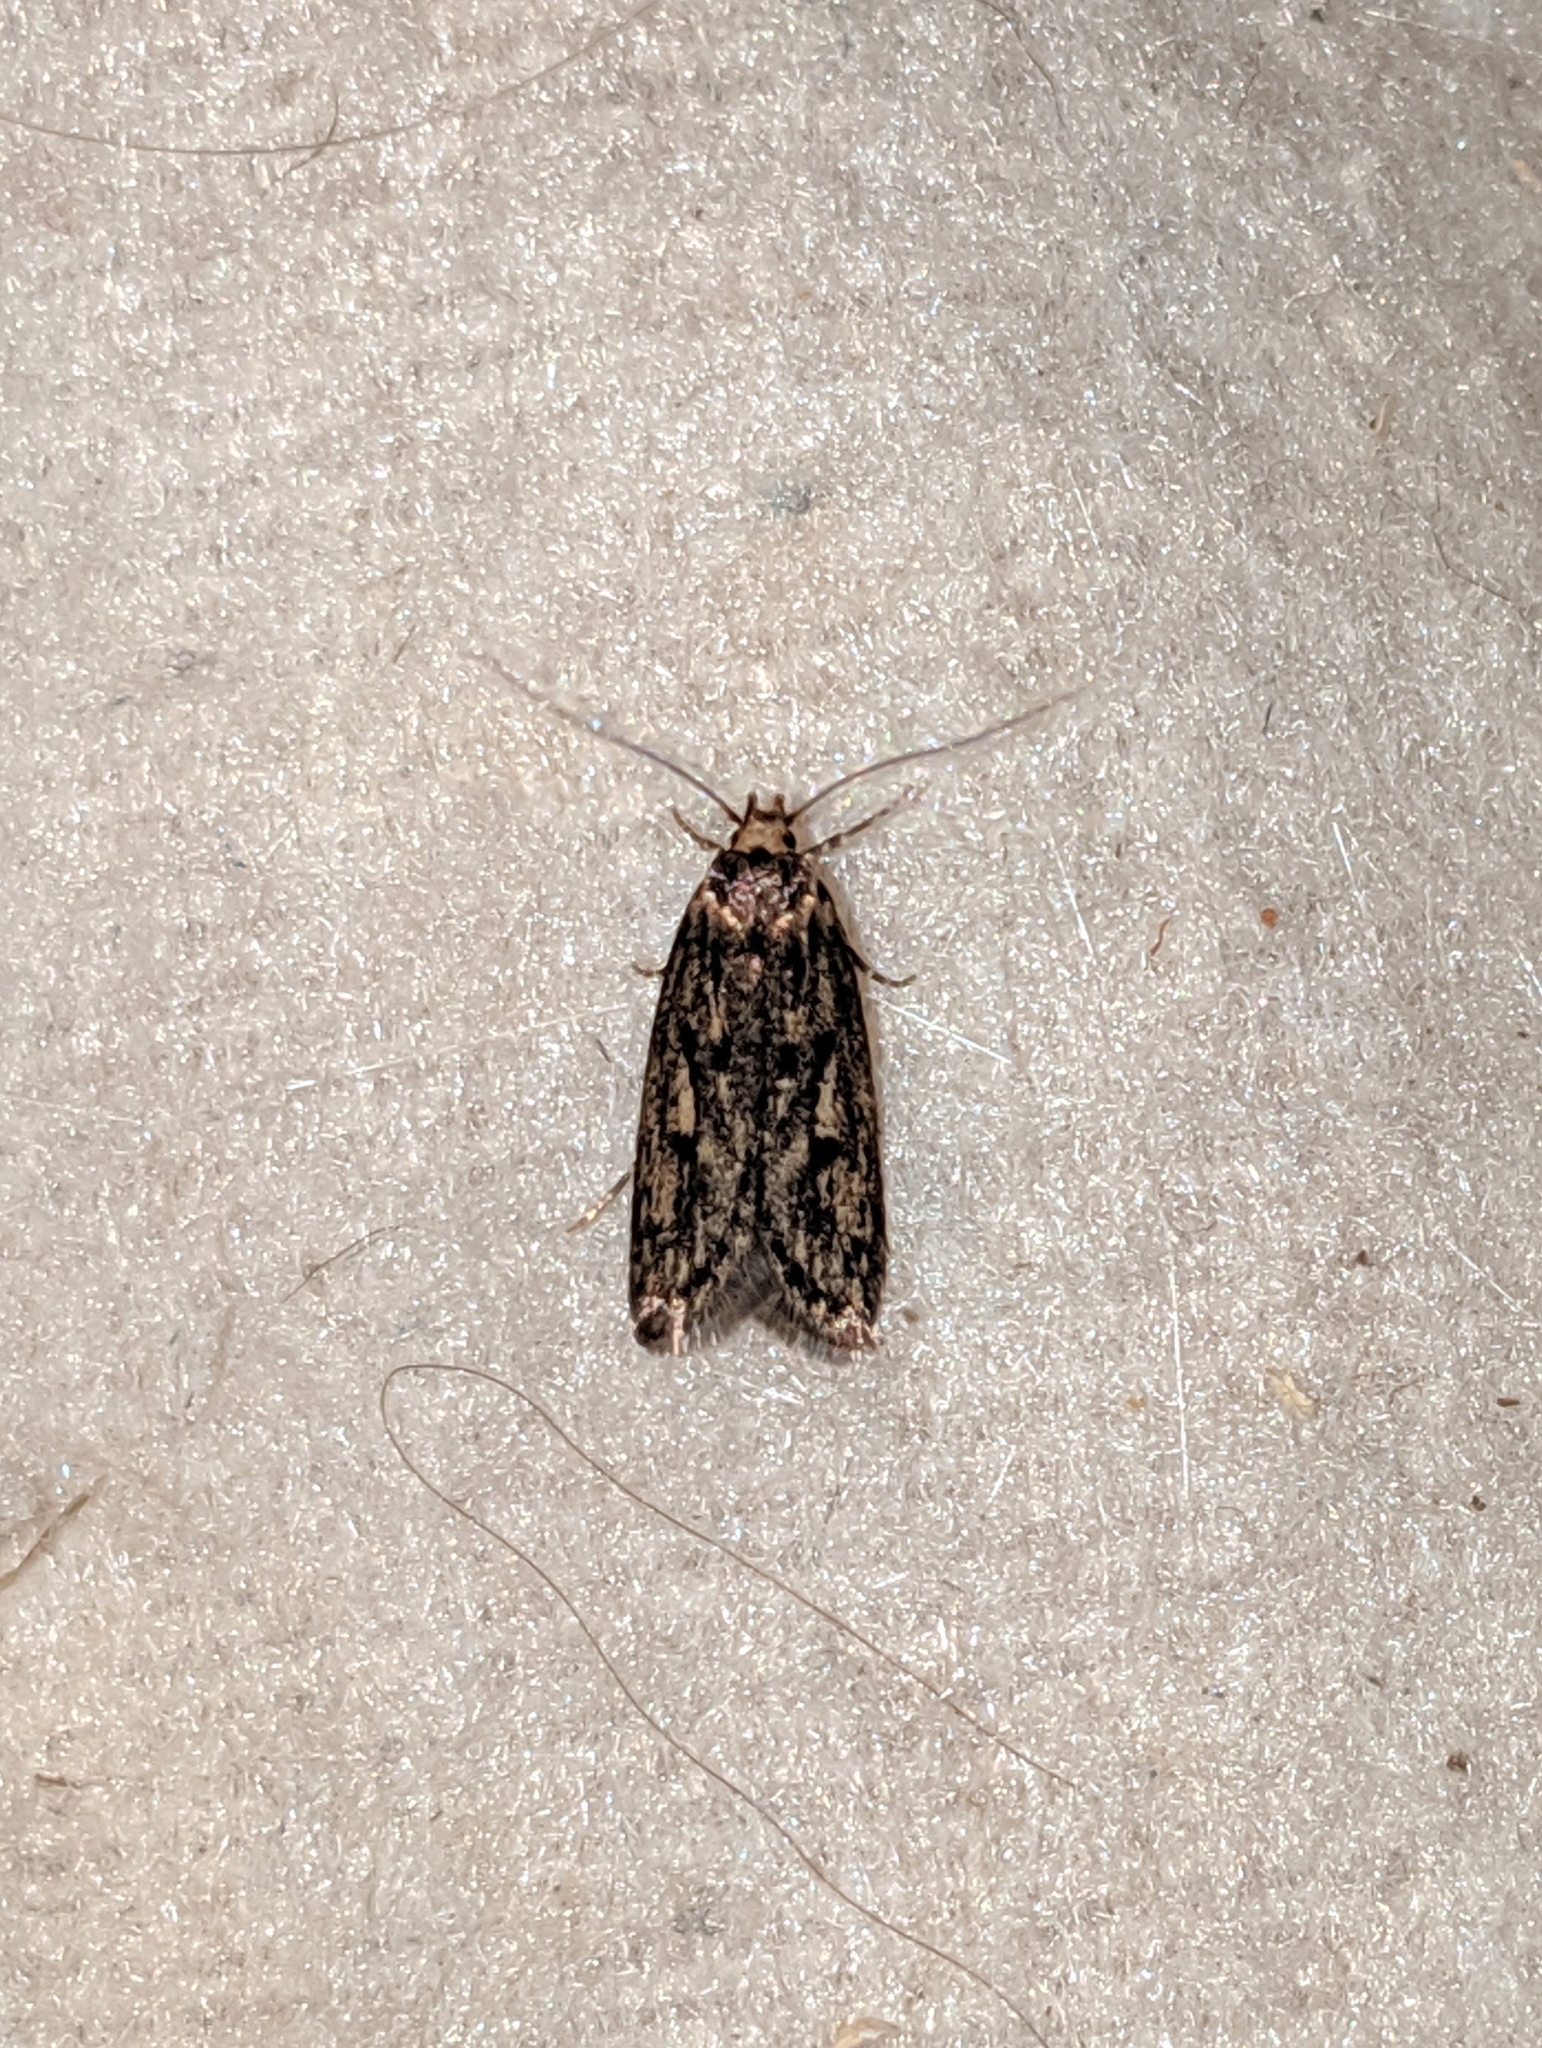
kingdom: Animalia
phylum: Arthropoda
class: Insecta
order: Lepidoptera
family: Oecophoridae
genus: Hofmannophila
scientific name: Hofmannophila pseudospretella
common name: Brown house moth
